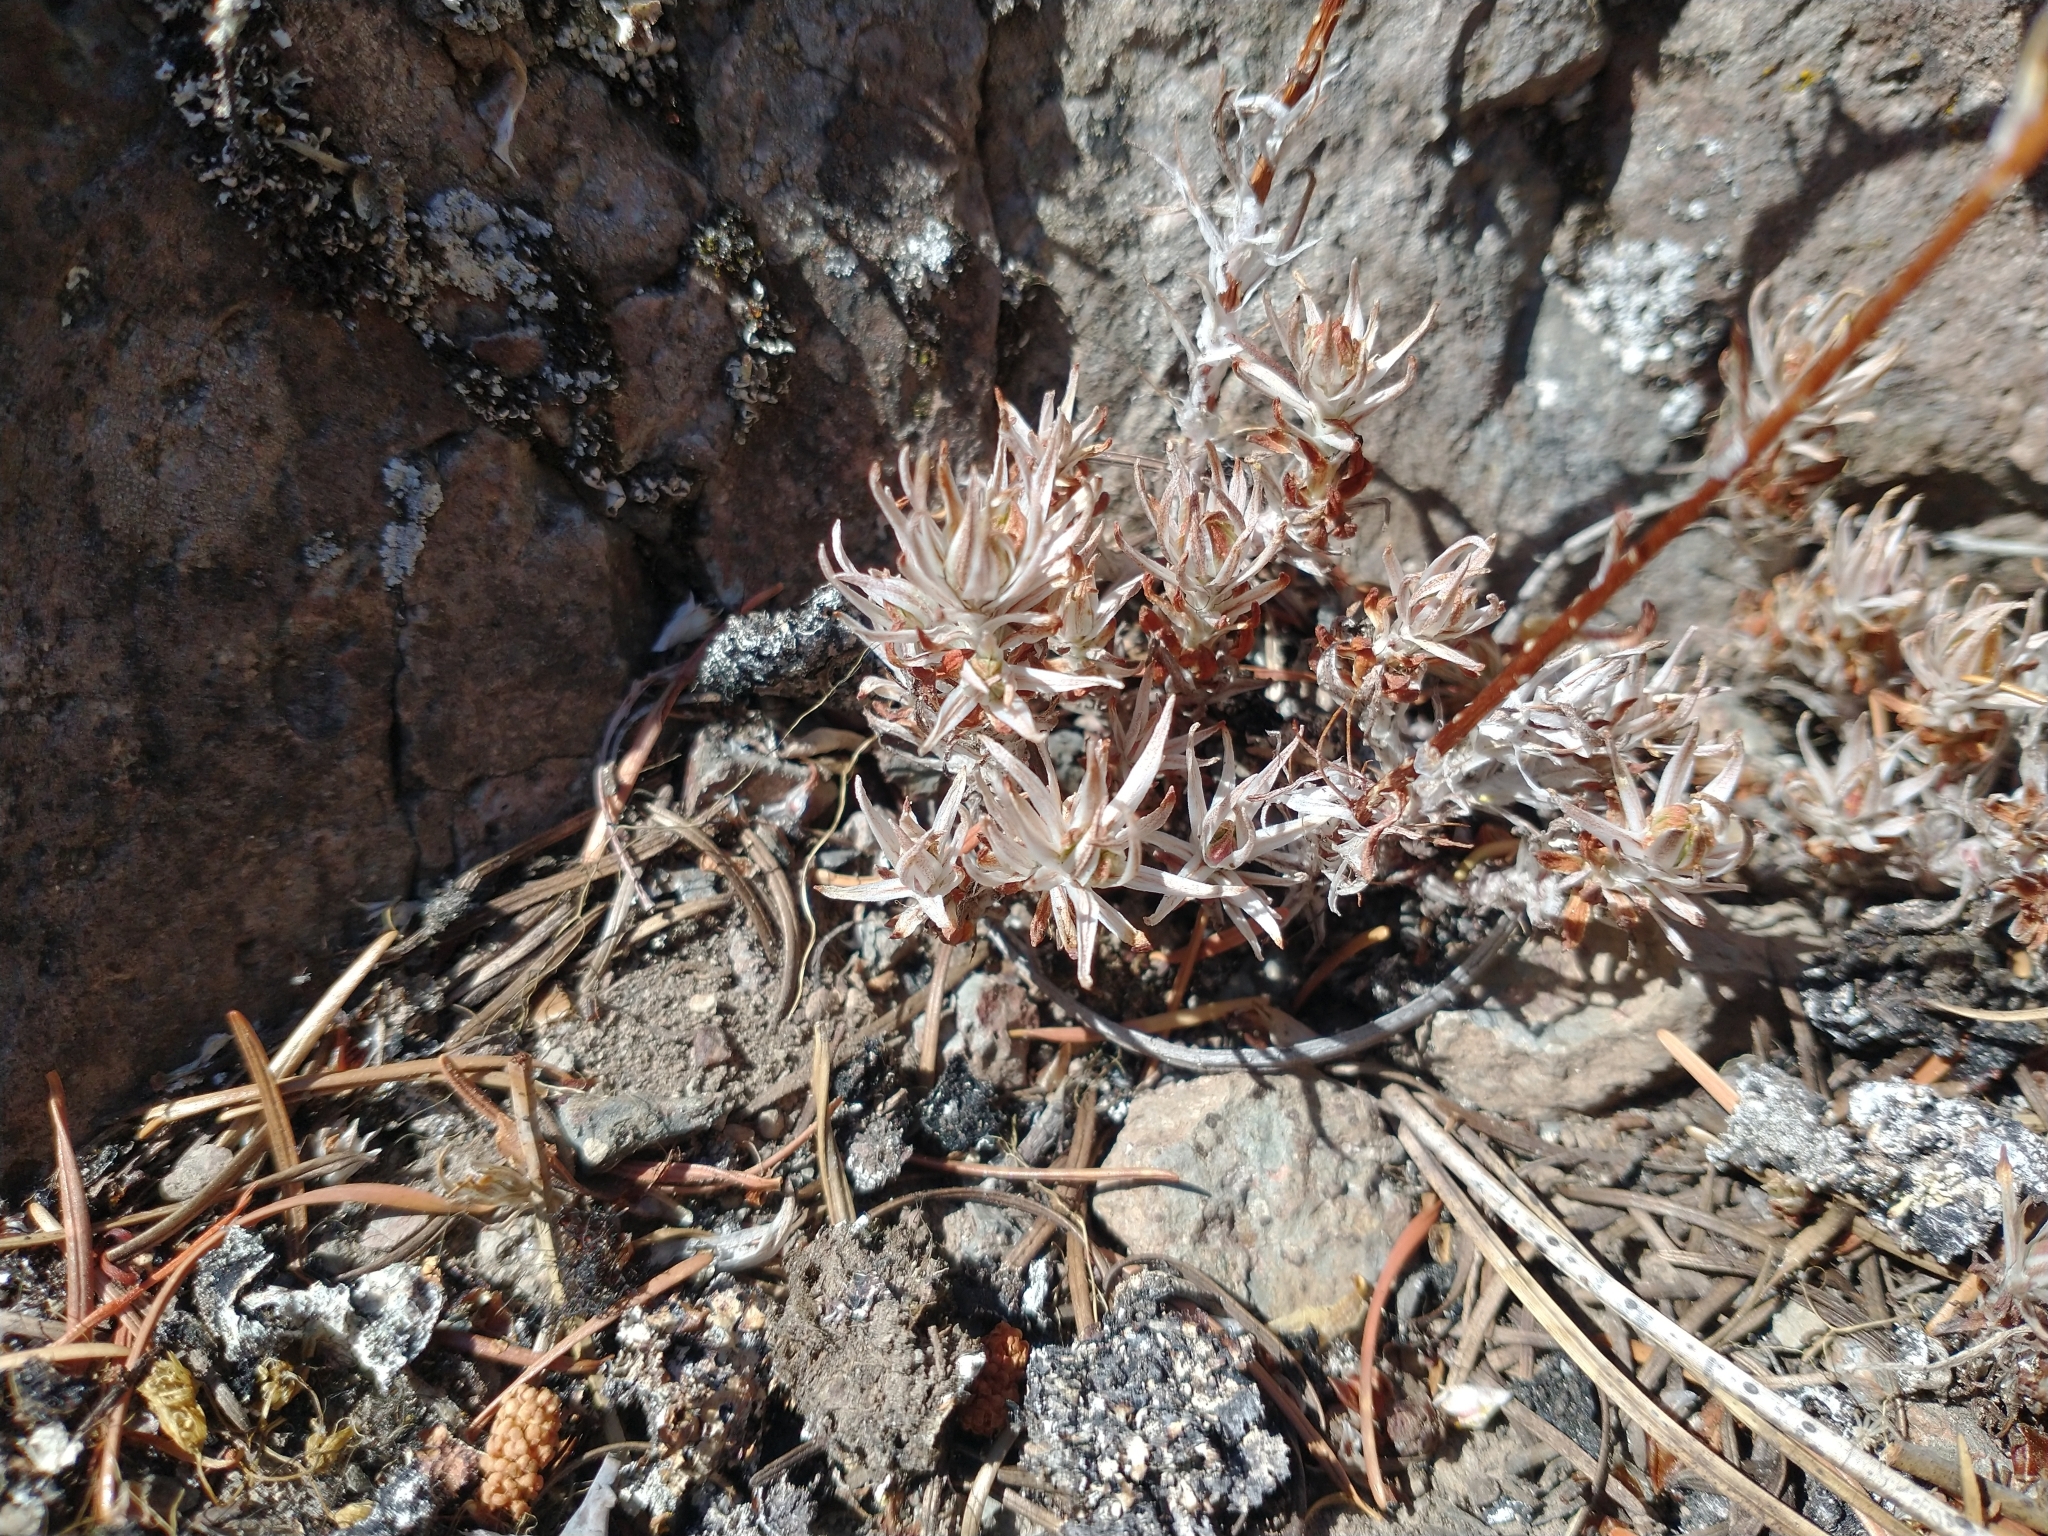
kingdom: Plantae
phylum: Tracheophyta
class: Magnoliopsida
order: Saxifragales
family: Crassulaceae
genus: Sedum
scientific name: Sedum stenopetalum
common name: Narrow-petaled stonecrop
